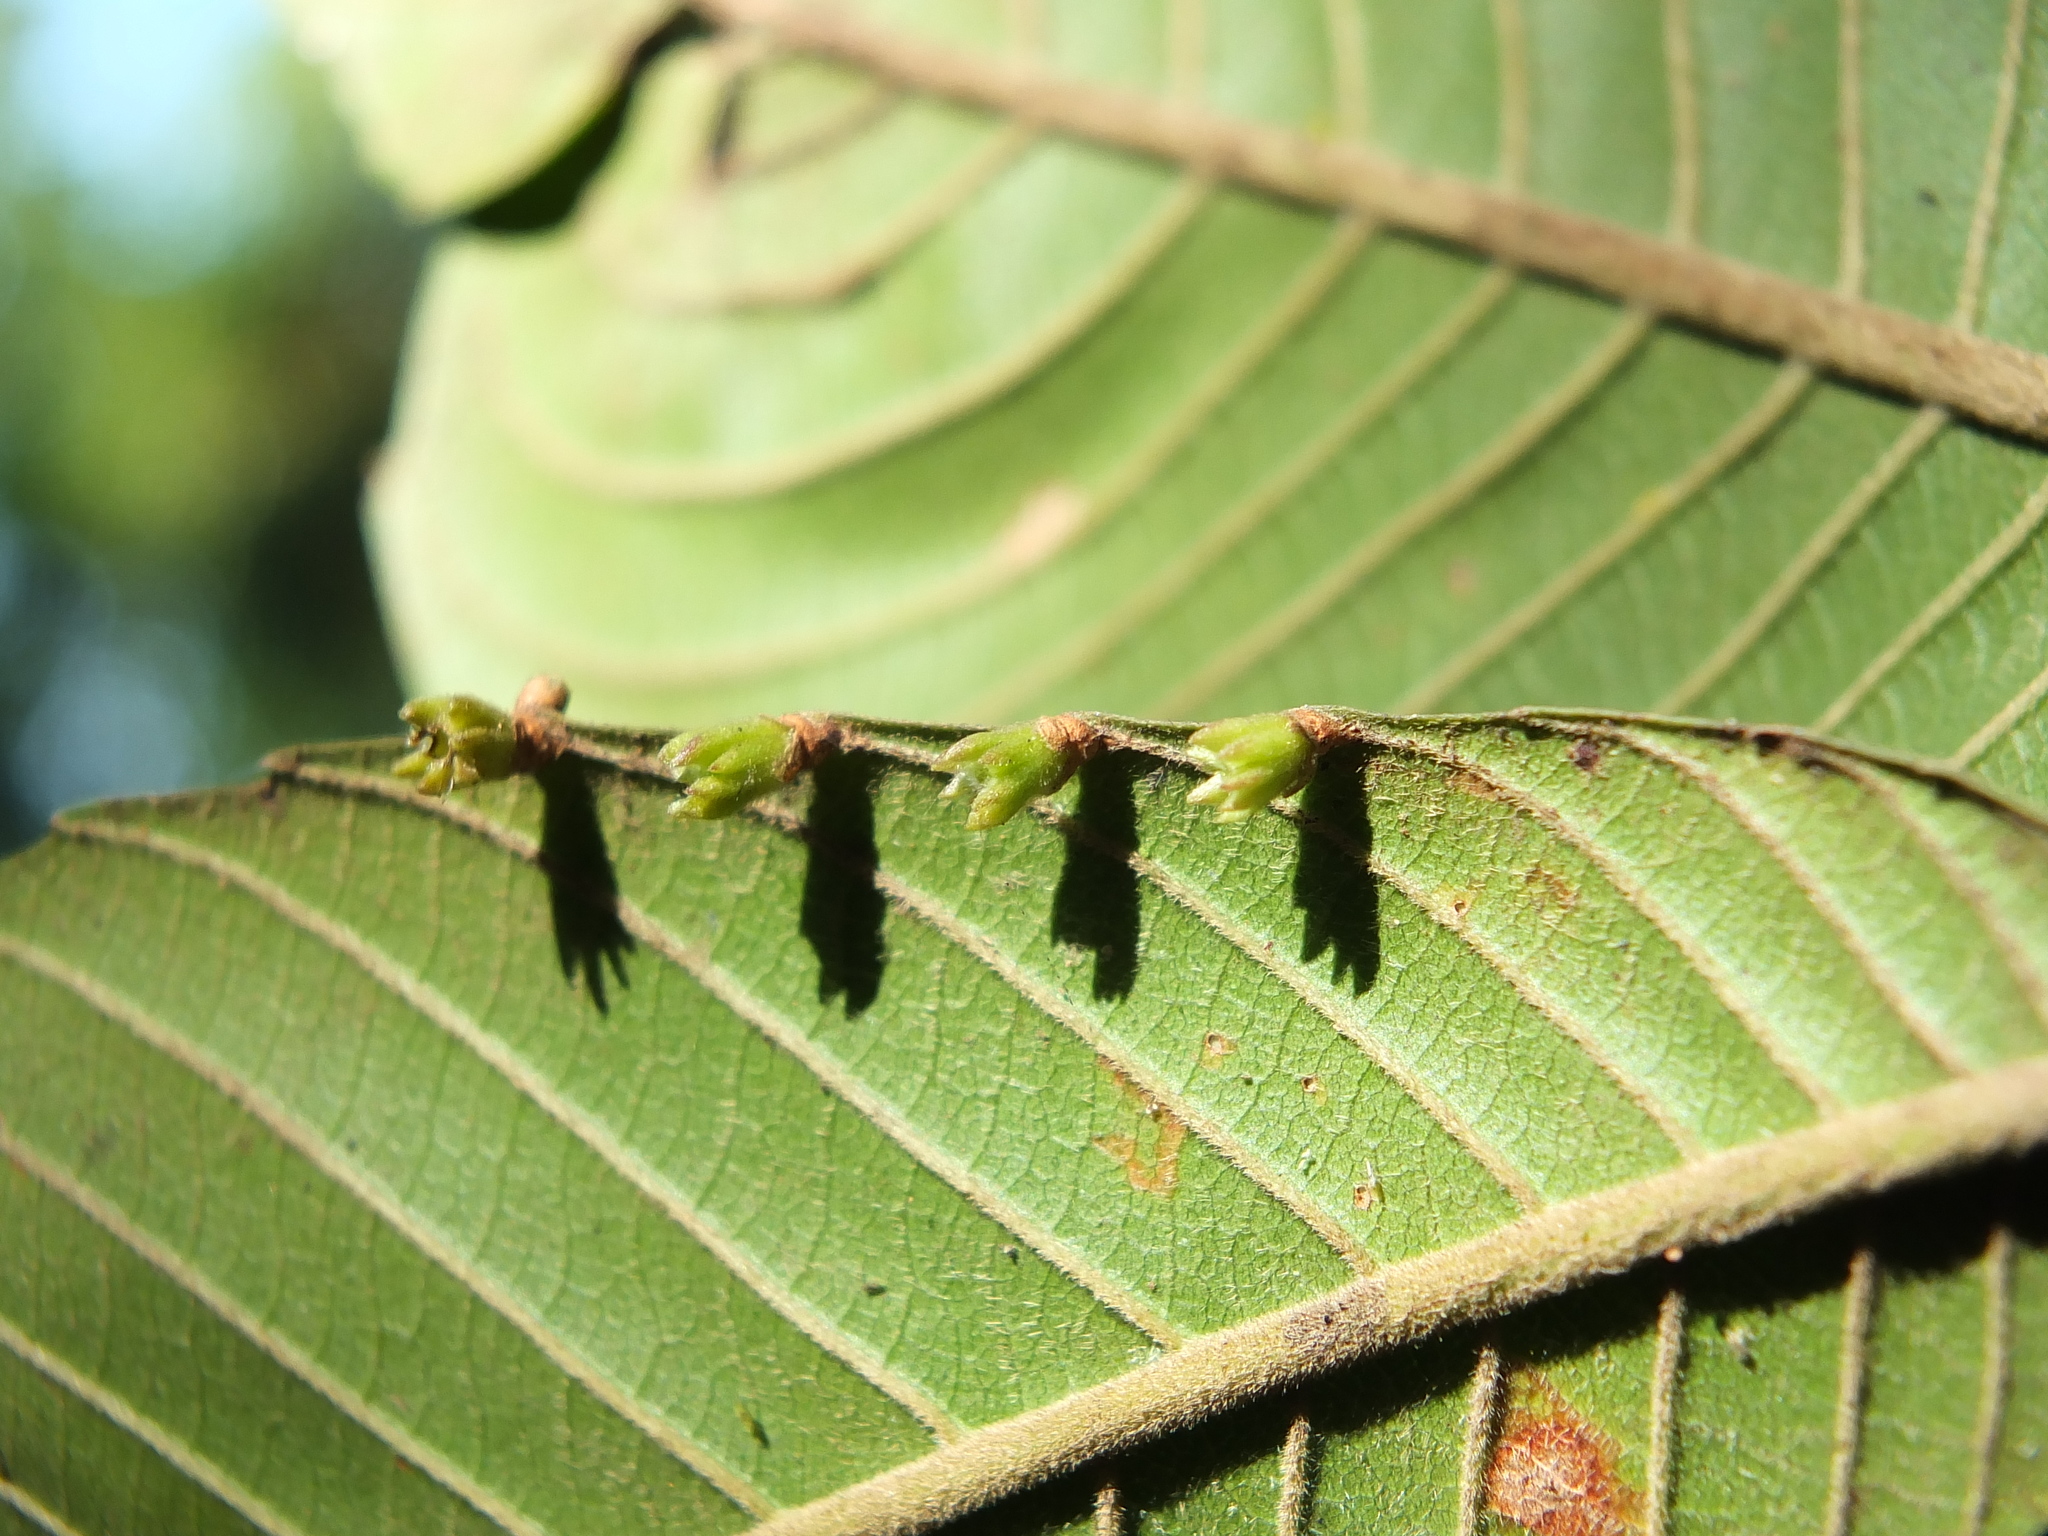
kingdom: Plantae
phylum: Tracheophyta
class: Magnoliopsida
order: Dilleniales
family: Dilleniaceae
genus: Dillenia
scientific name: Dillenia pentagyna
